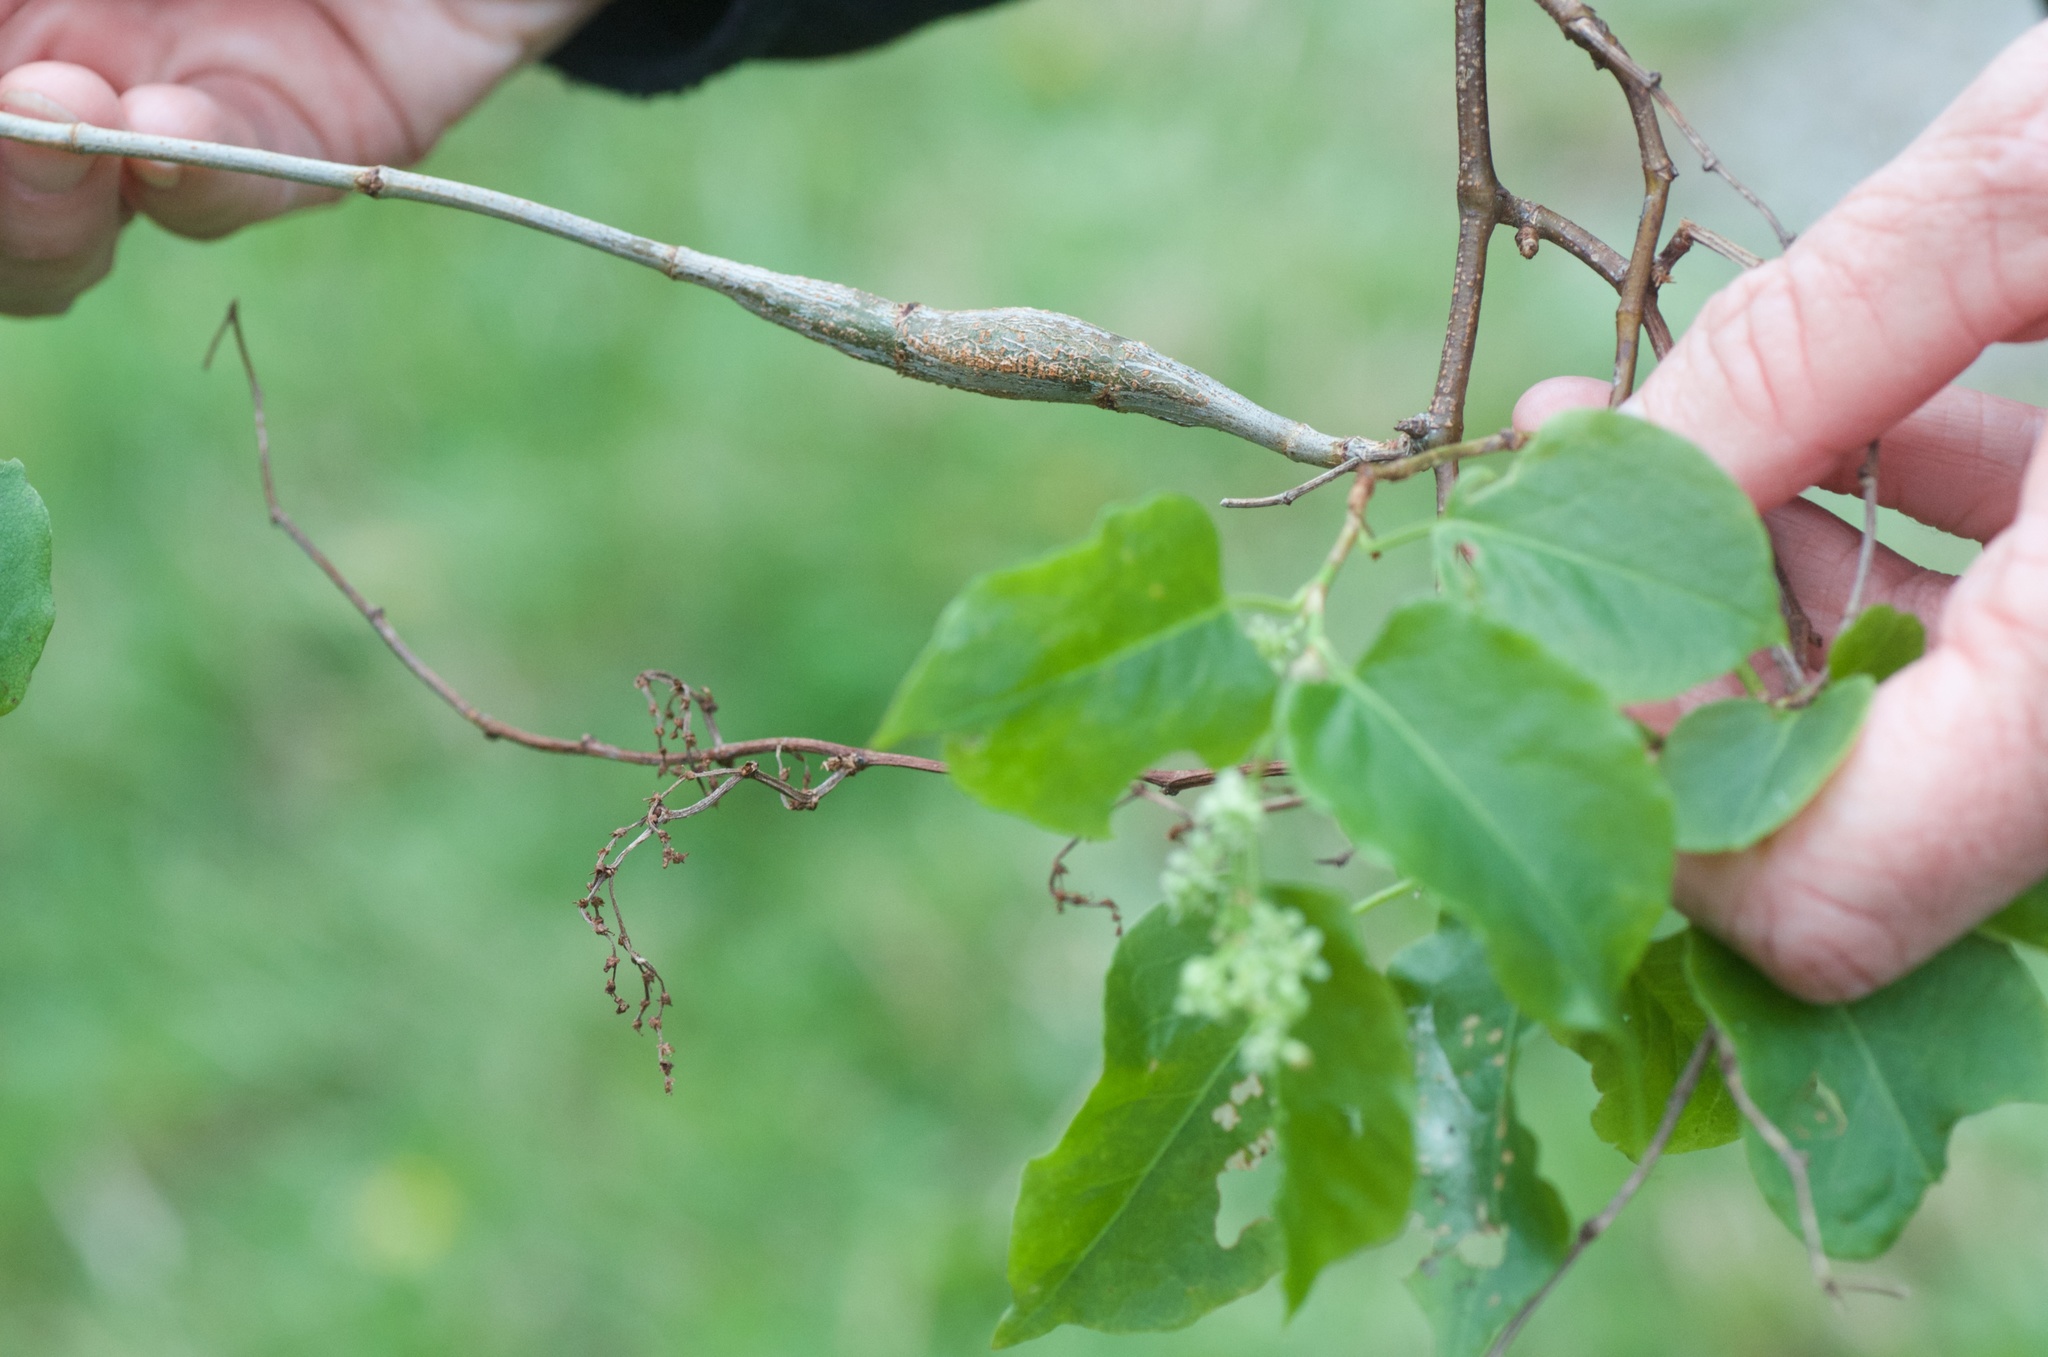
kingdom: Animalia
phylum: Arthropoda
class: Insecta
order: Lepidoptera
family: Thyrididae
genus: Morova
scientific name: Morova subfasciata
